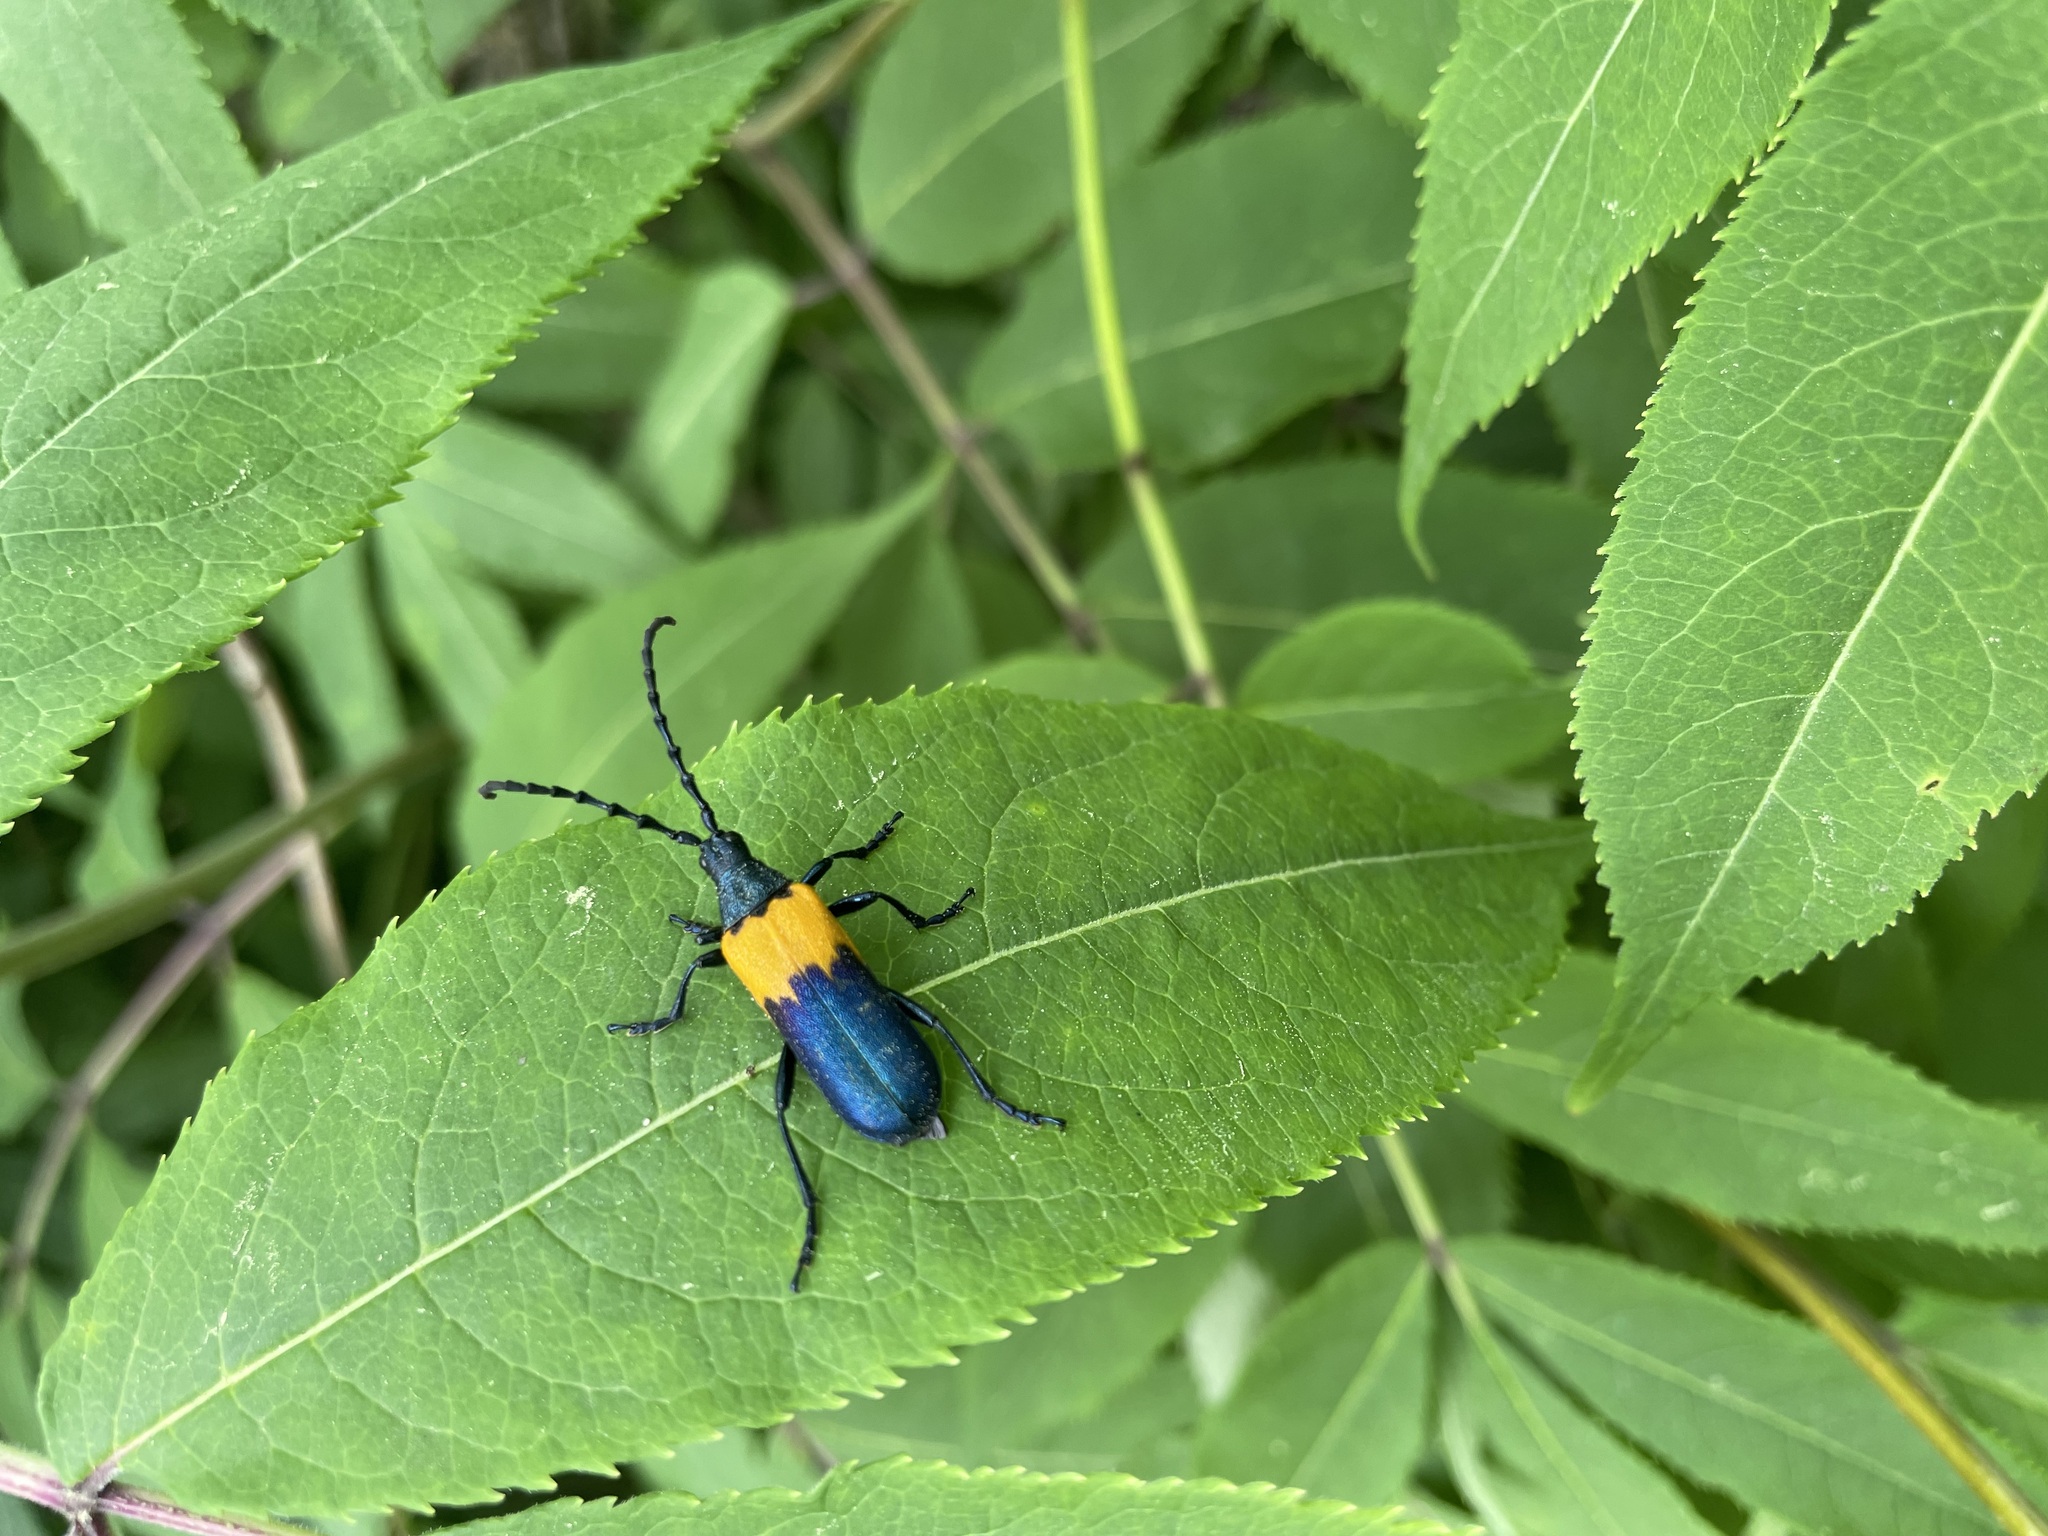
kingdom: Animalia
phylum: Arthropoda
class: Insecta
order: Coleoptera
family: Cerambycidae
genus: Desmocerus
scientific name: Desmocerus palliatus
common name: Eastern elderberry borer
